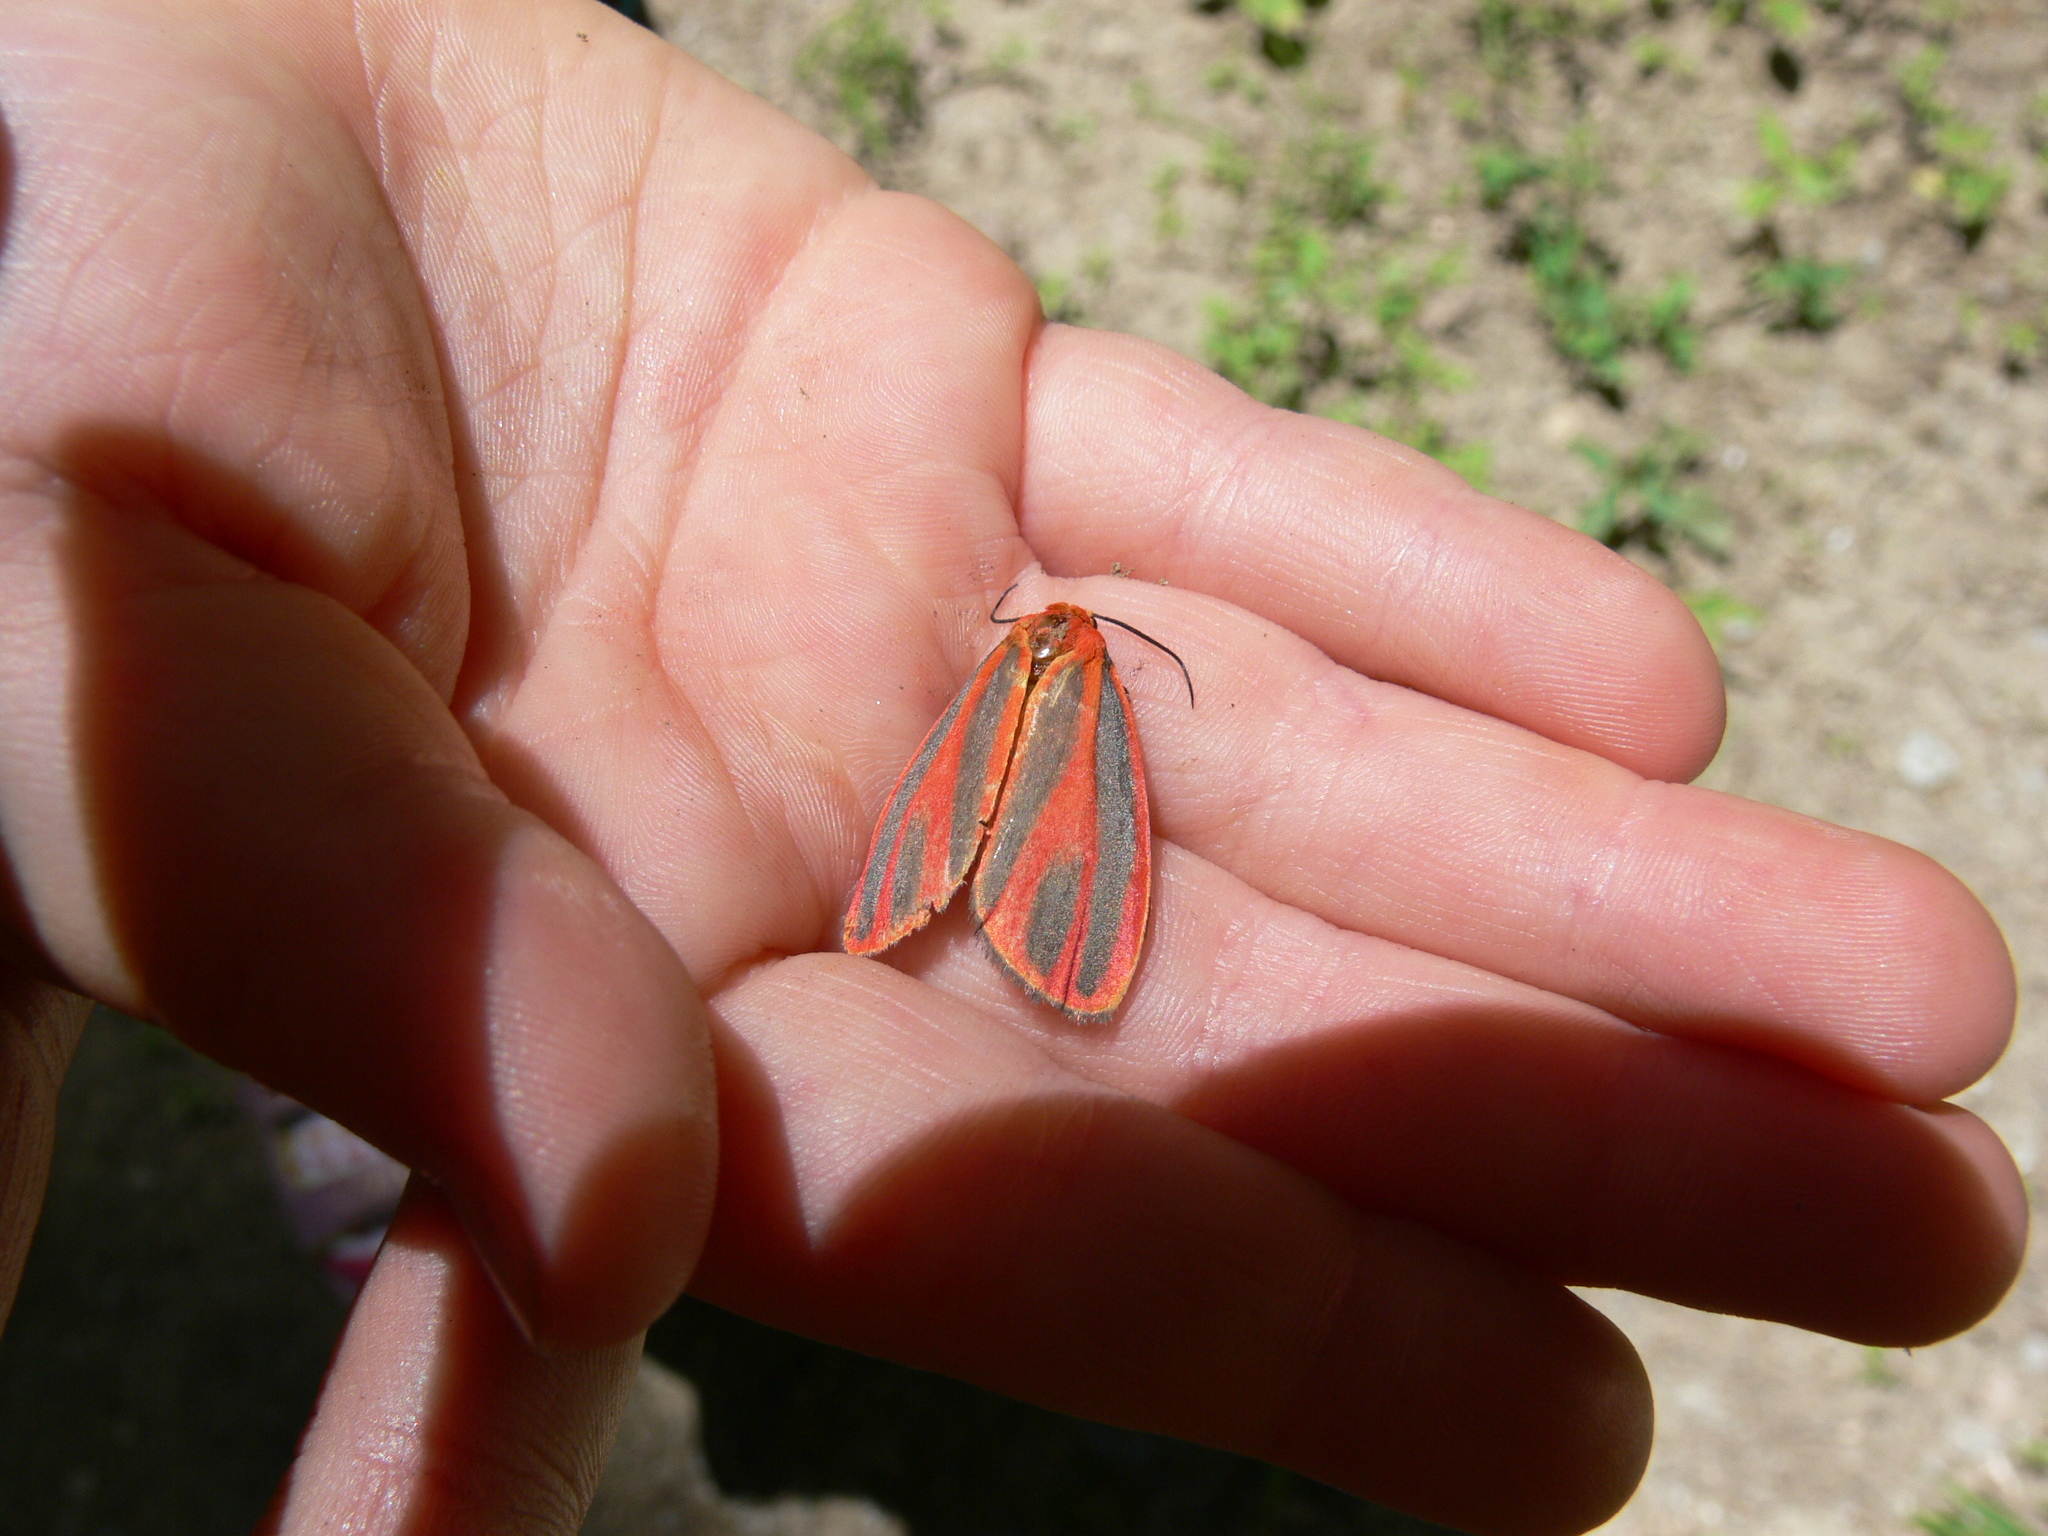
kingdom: Animalia
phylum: Arthropoda
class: Insecta
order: Lepidoptera
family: Erebidae
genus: Hypoprepia
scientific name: Hypoprepia miniata
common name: Scarlet-winged lichen moth
